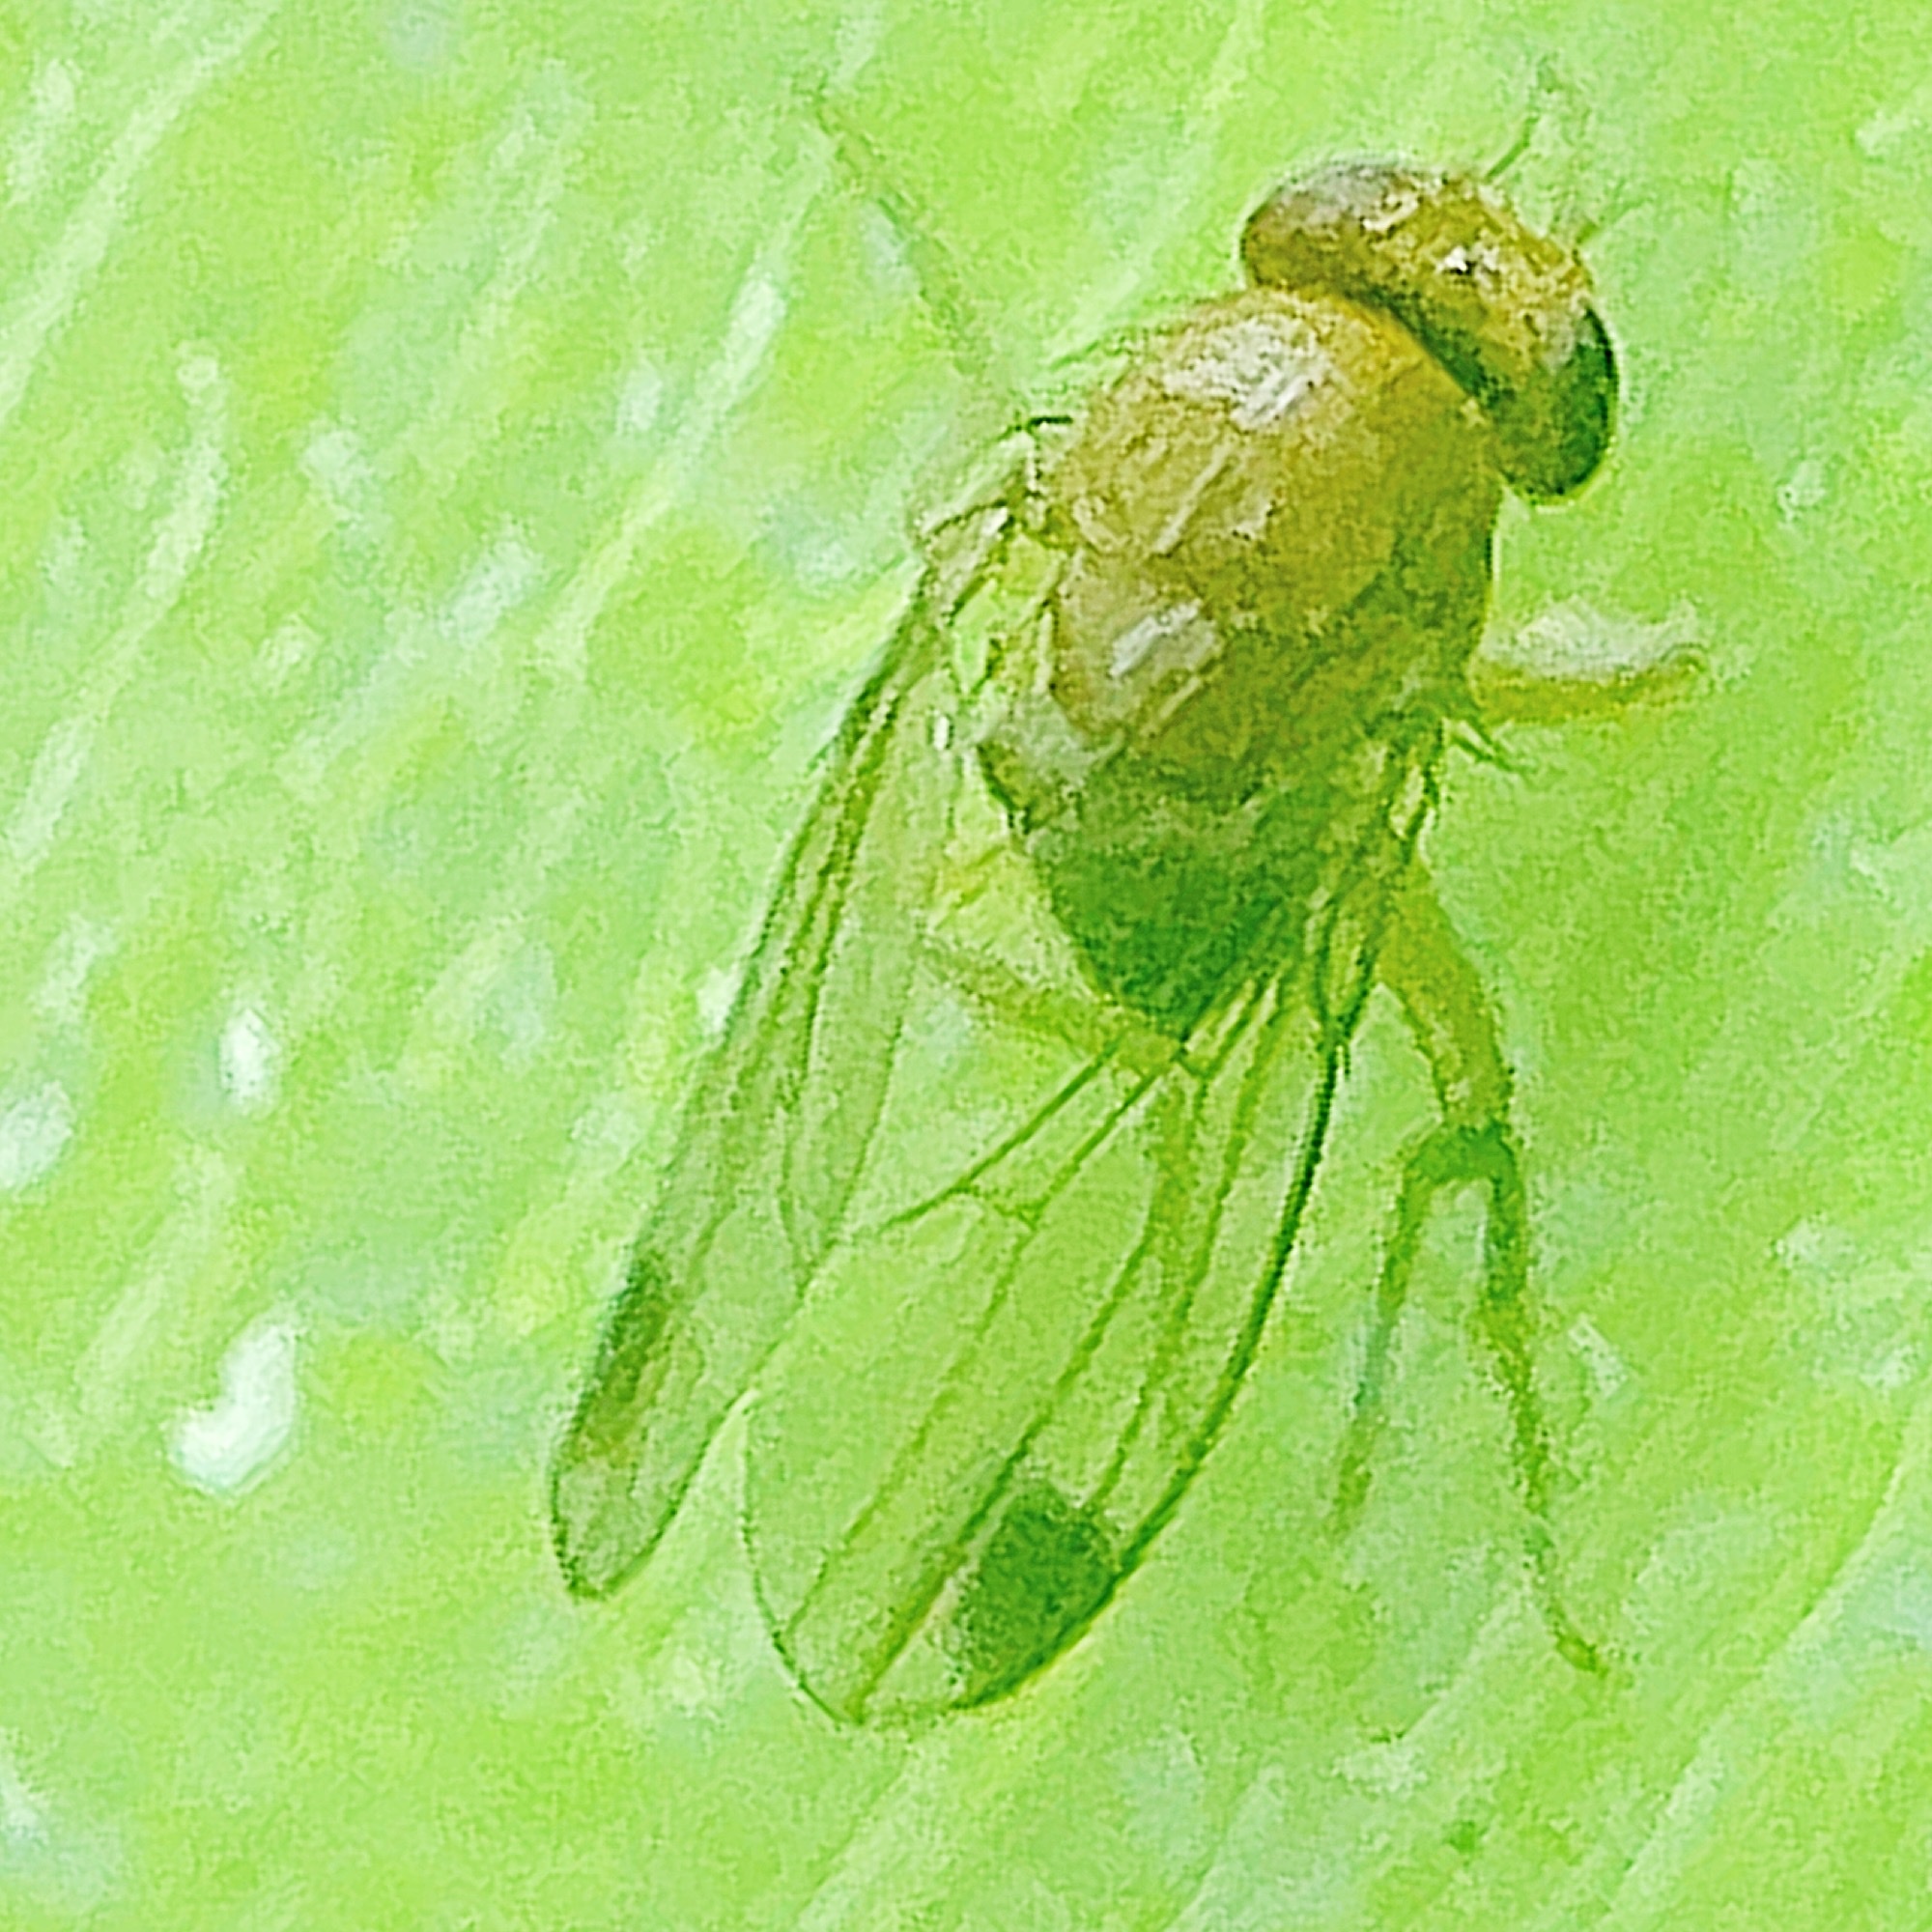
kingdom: Animalia
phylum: Arthropoda
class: Insecta
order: Diptera
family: Drosophilidae
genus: Drosophila
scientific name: Drosophila suzukii
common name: Spotted-wing drosophila
